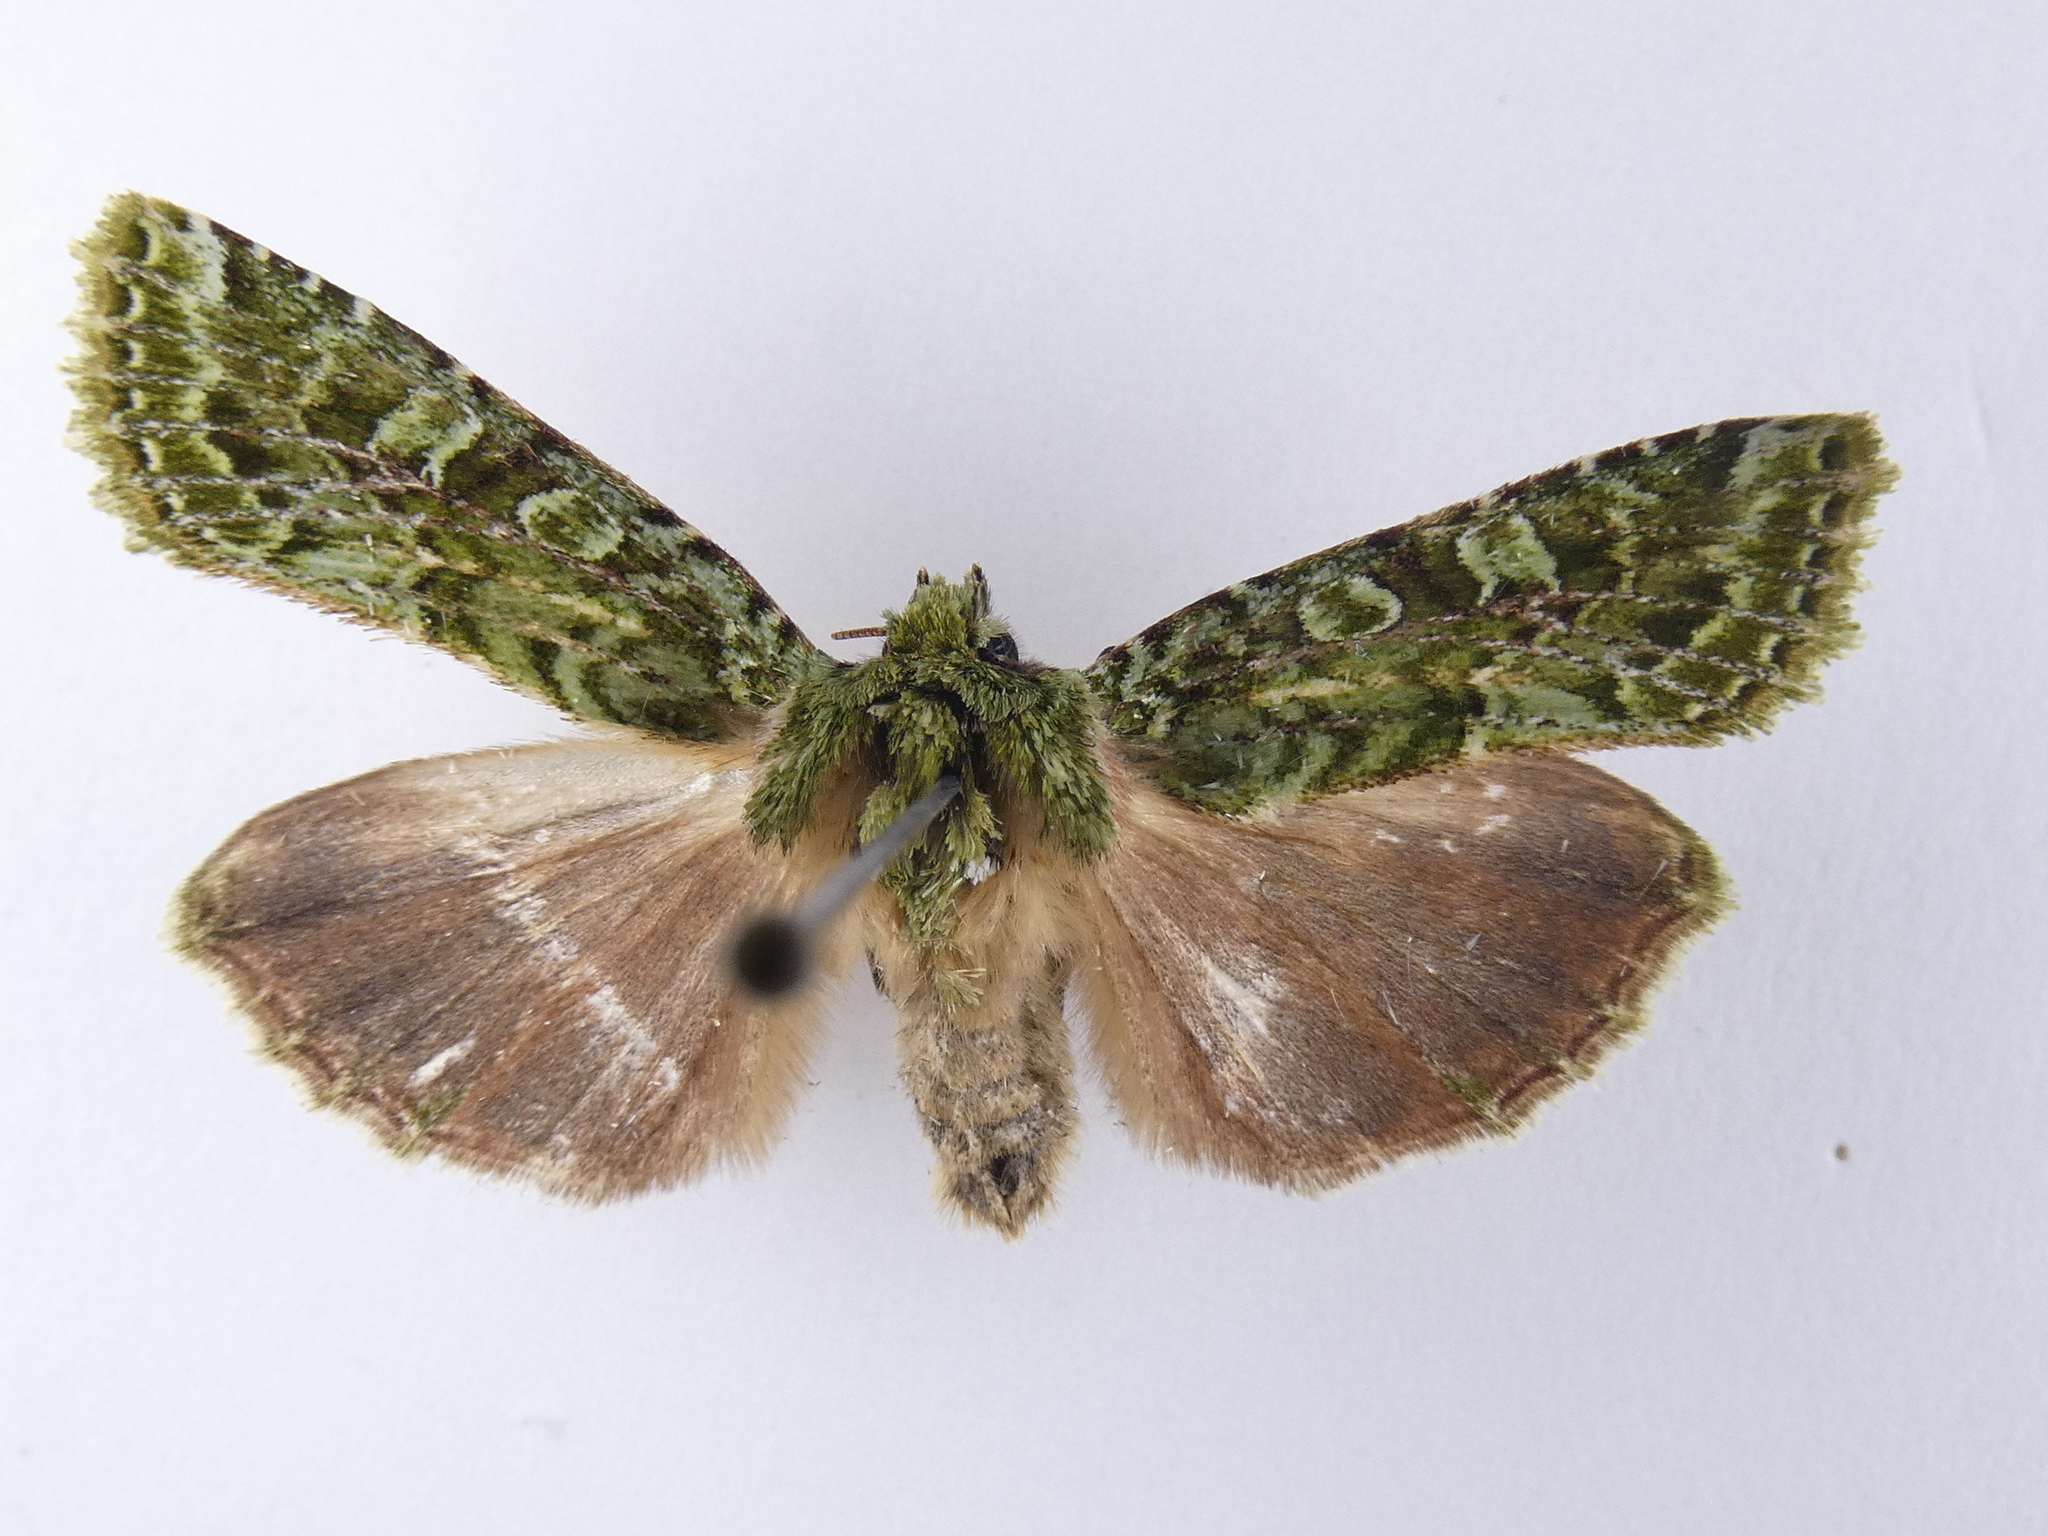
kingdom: Animalia
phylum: Arthropoda
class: Insecta
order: Lepidoptera
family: Noctuidae
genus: Feredayia
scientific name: Feredayia grammosa
